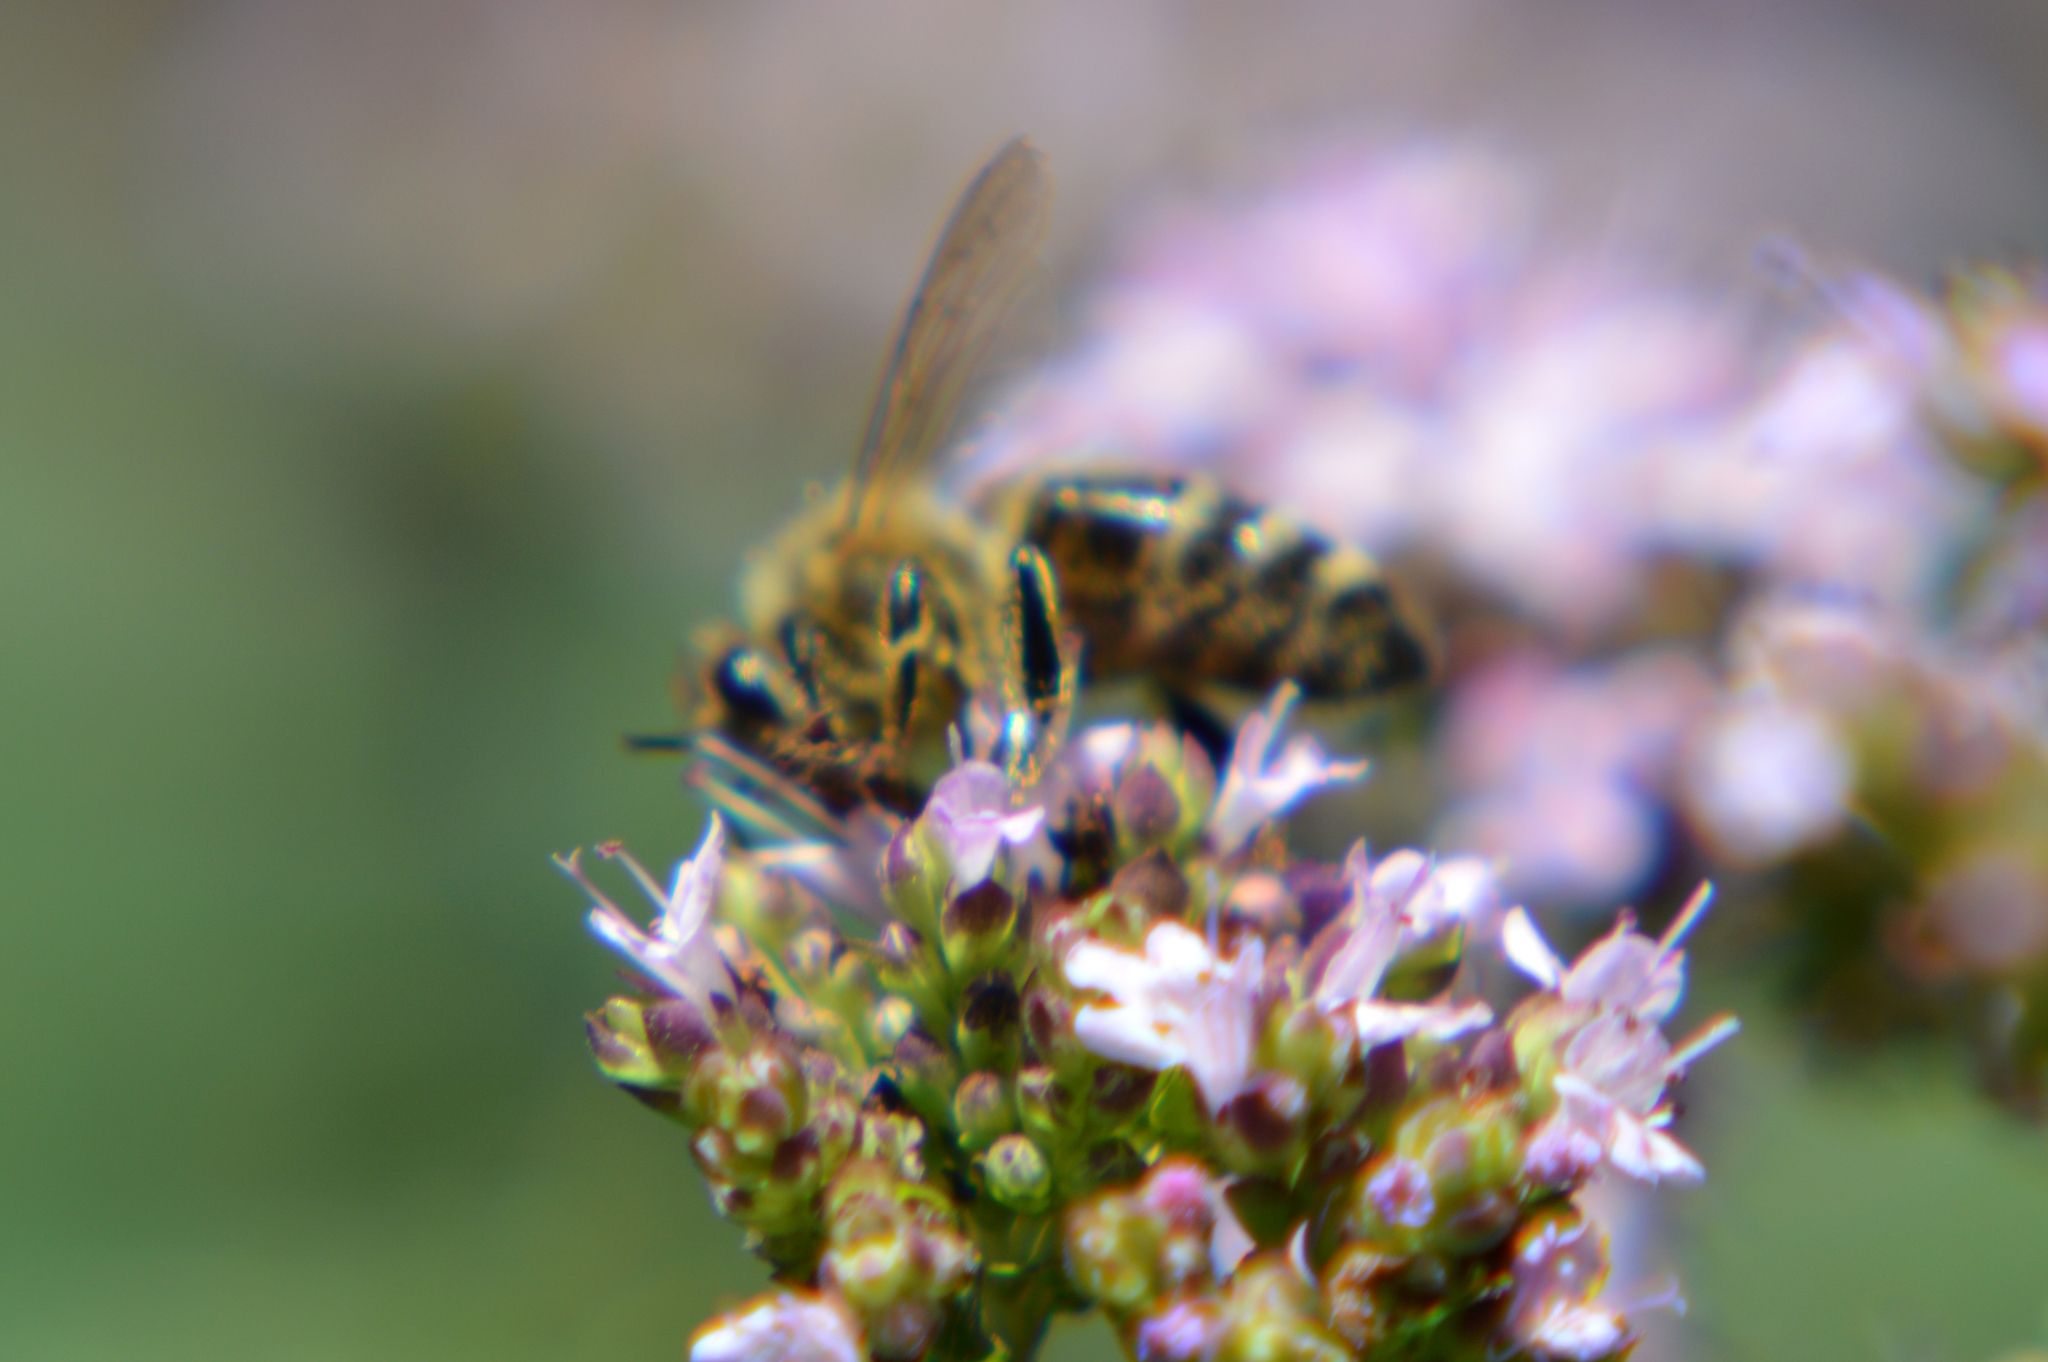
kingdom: Animalia
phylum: Arthropoda
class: Insecta
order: Hymenoptera
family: Apidae
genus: Apis
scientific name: Apis mellifera
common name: Honey bee
